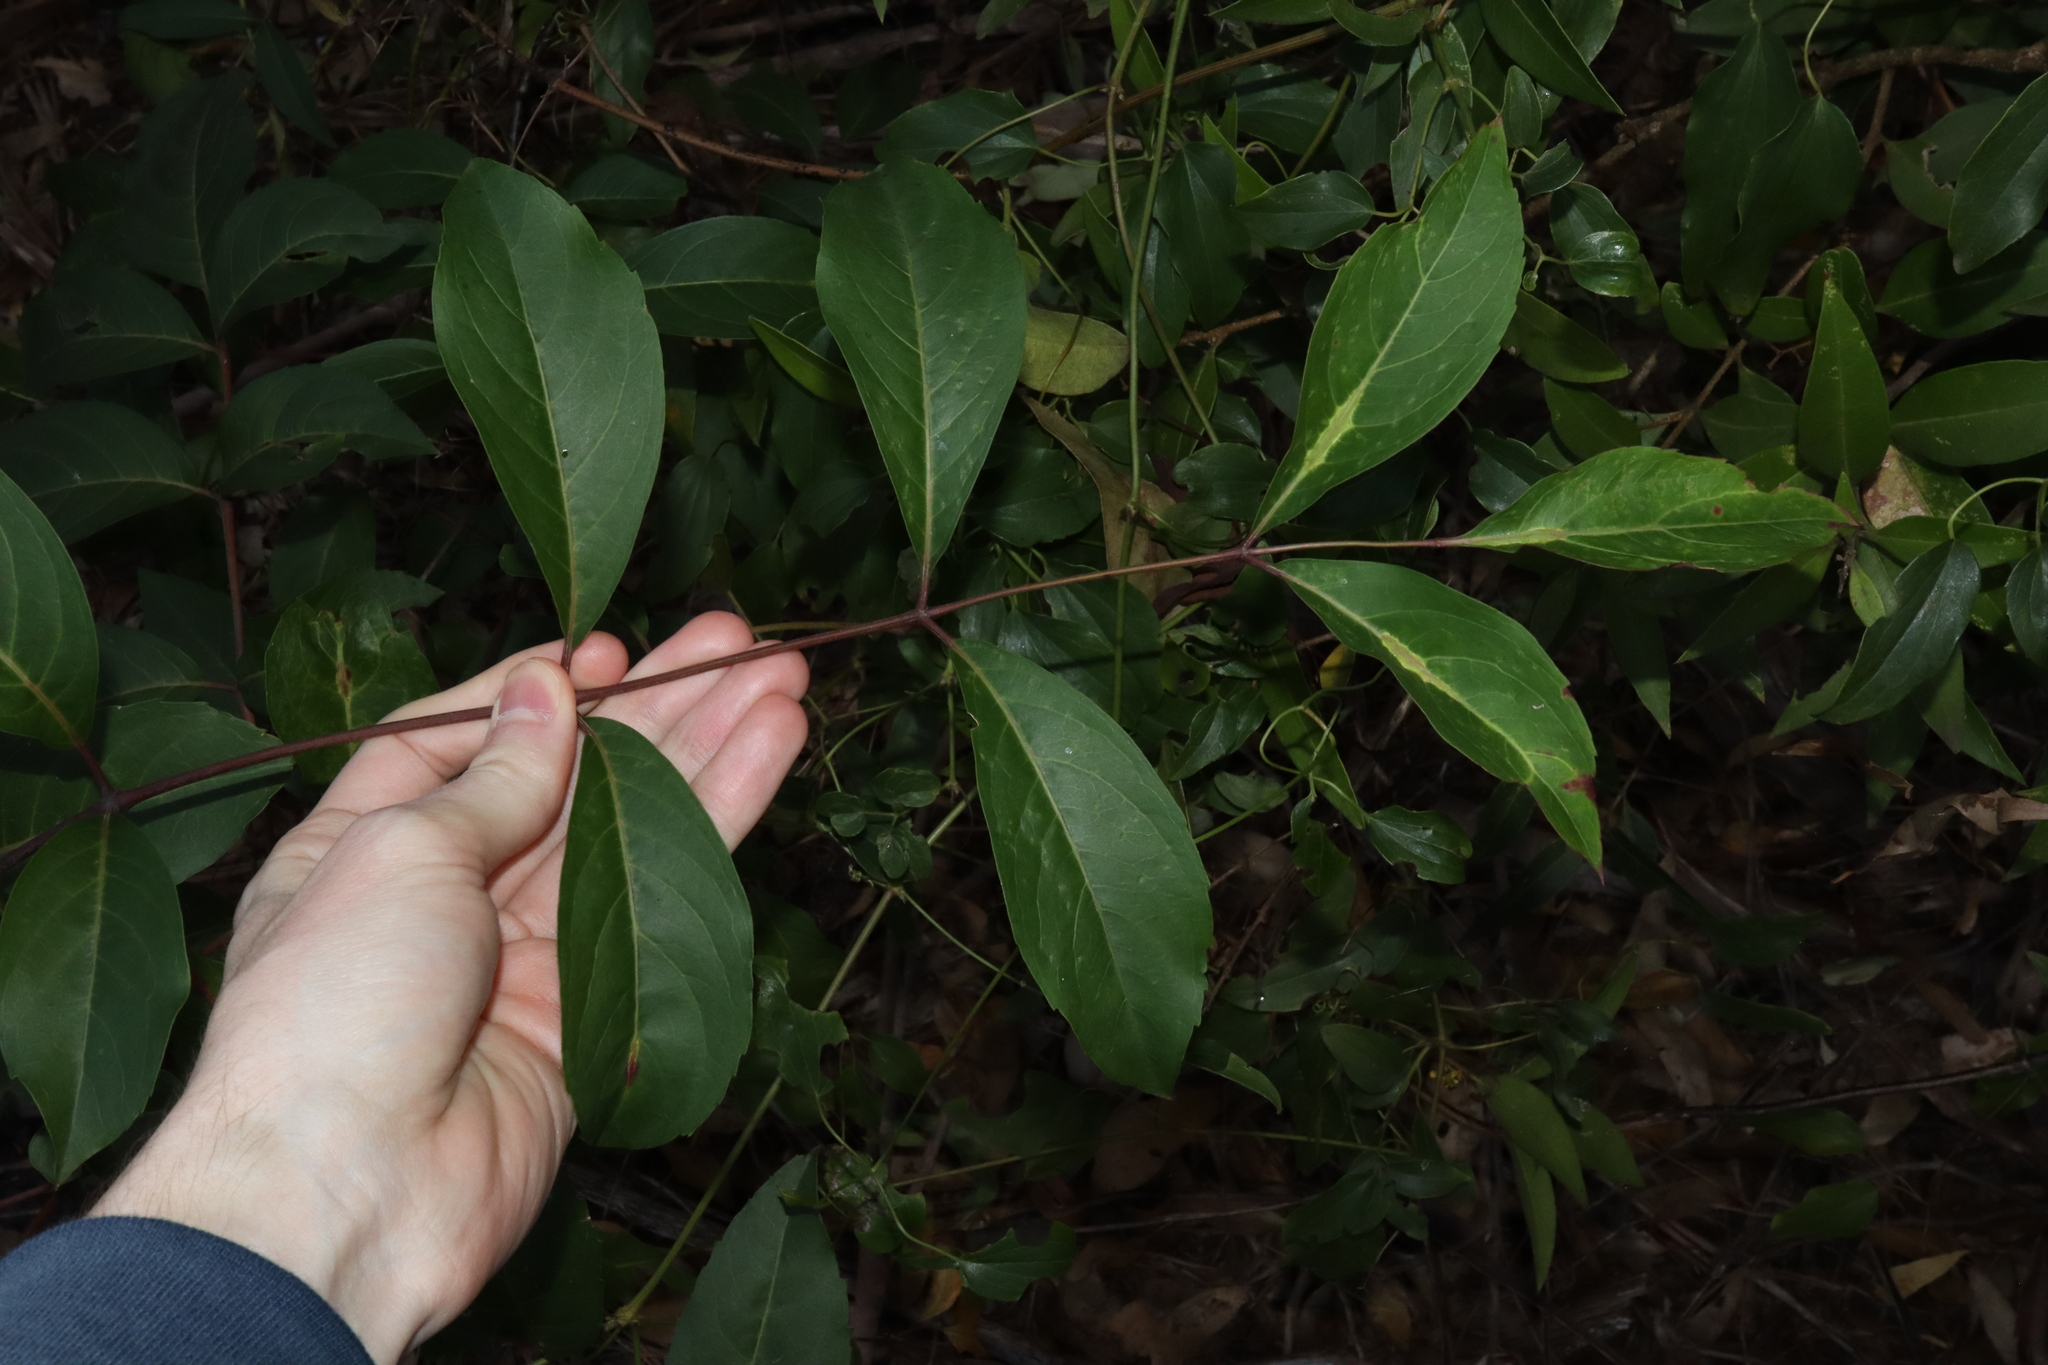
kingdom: Plantae
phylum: Tracheophyta
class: Magnoliopsida
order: Apiales
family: Araliaceae
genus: Polyscias
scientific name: Polyscias sambucifolia
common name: Elderberry-ash
